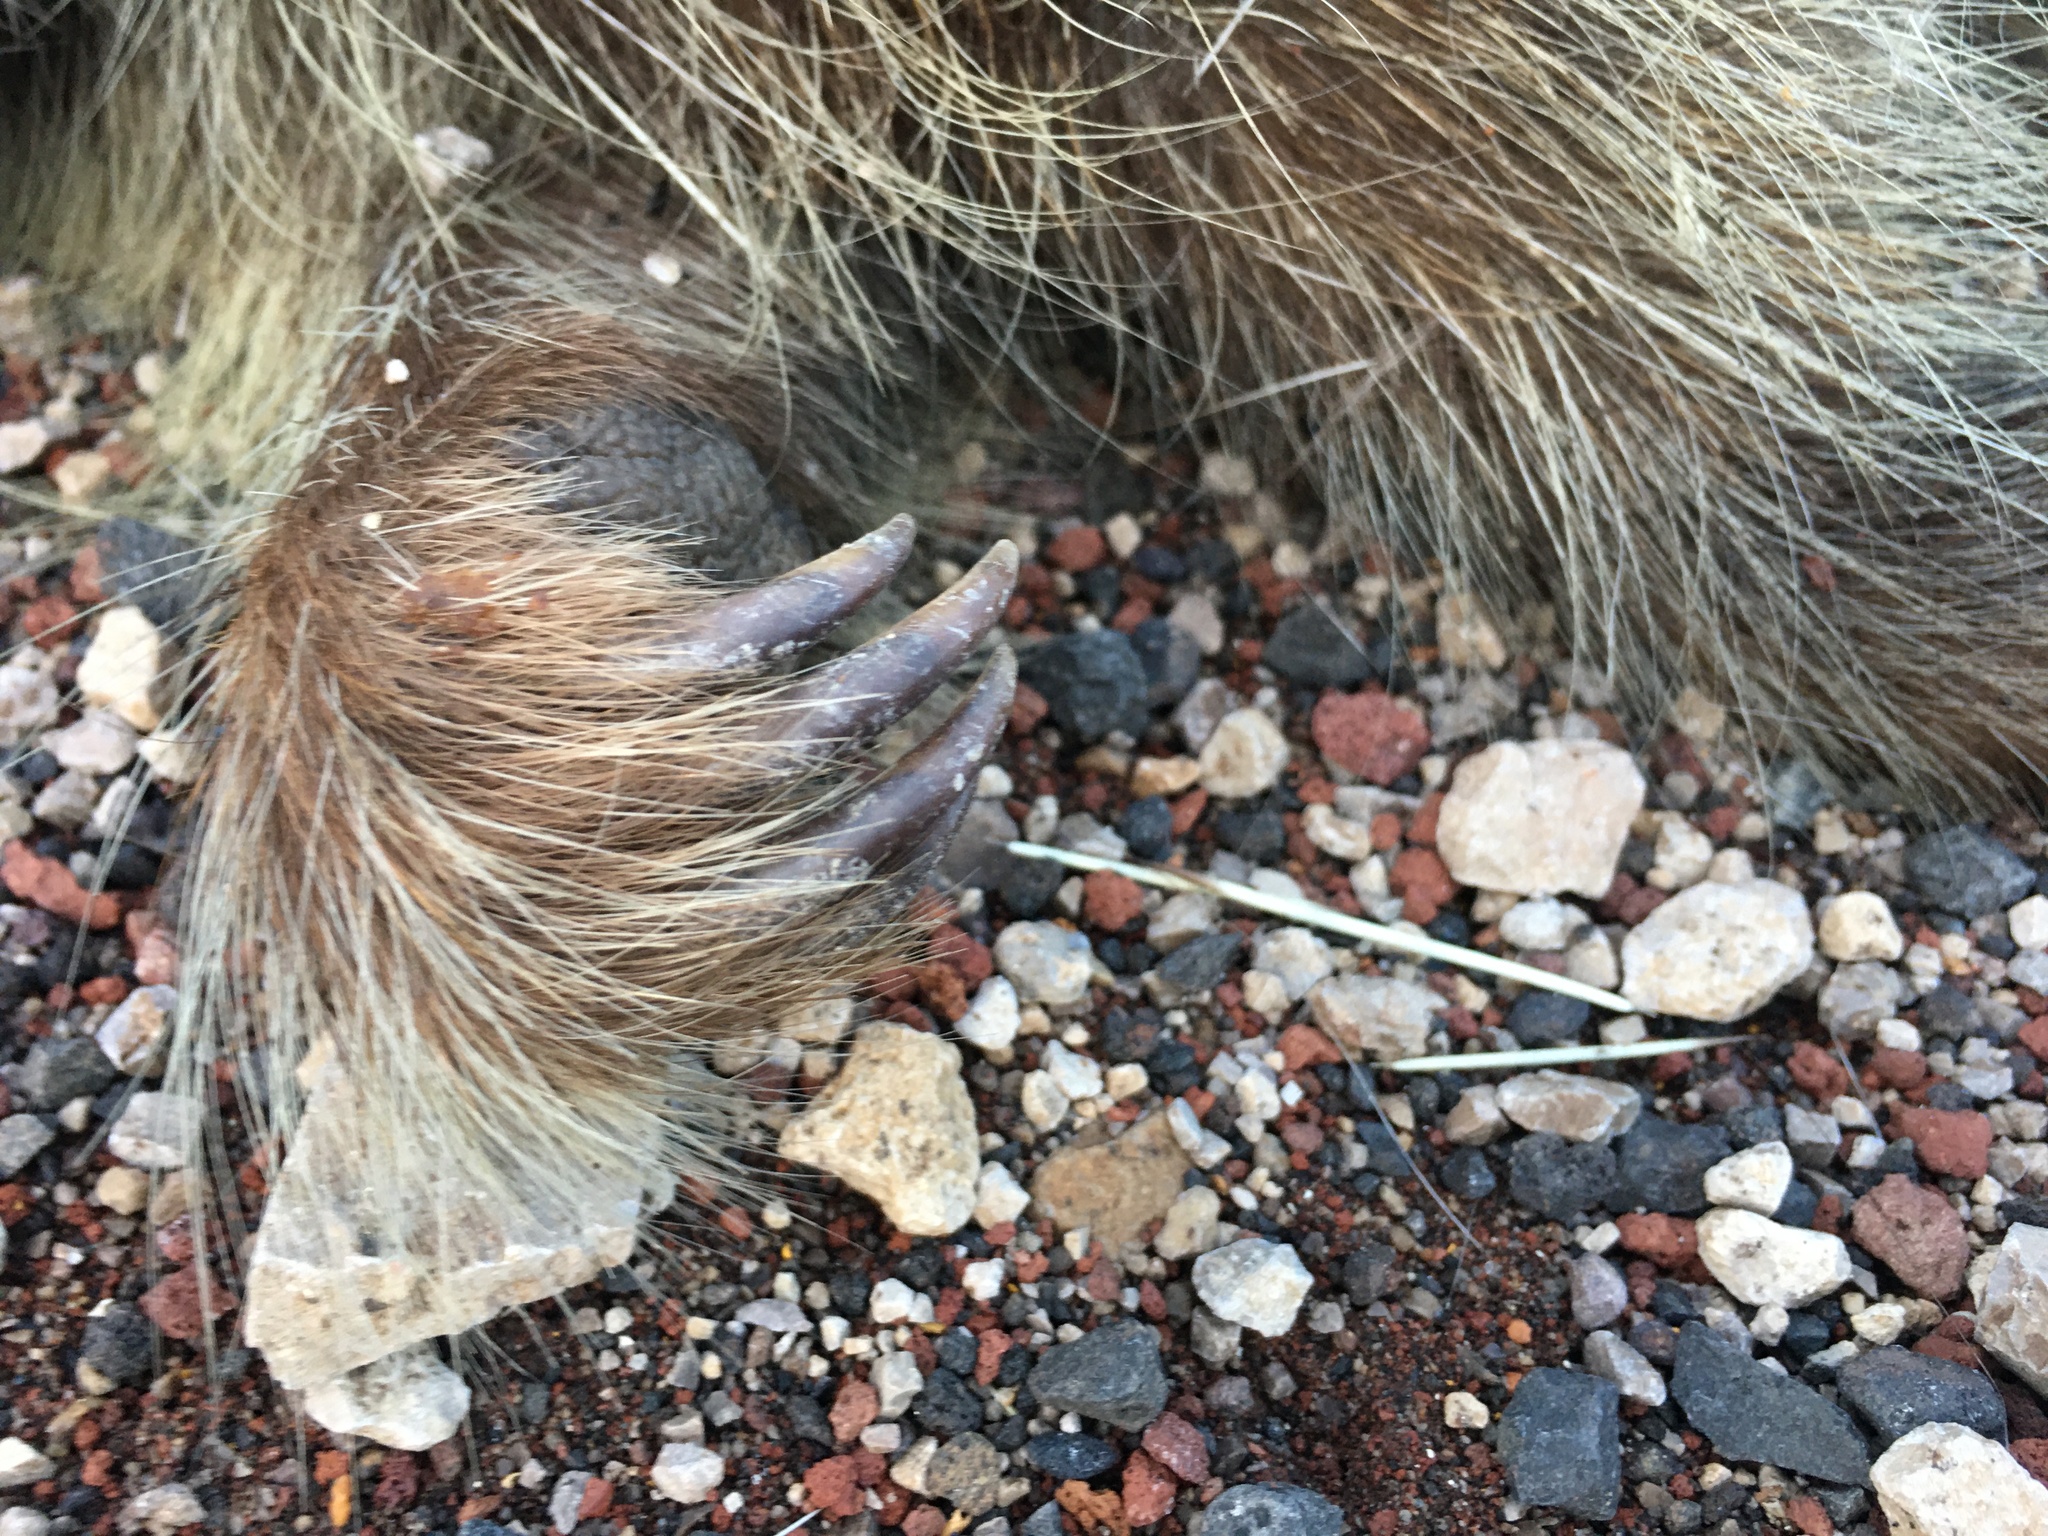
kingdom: Animalia
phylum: Chordata
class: Mammalia
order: Rodentia
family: Erethizontidae
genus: Erethizon
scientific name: Erethizon dorsatus
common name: North american porcupine
